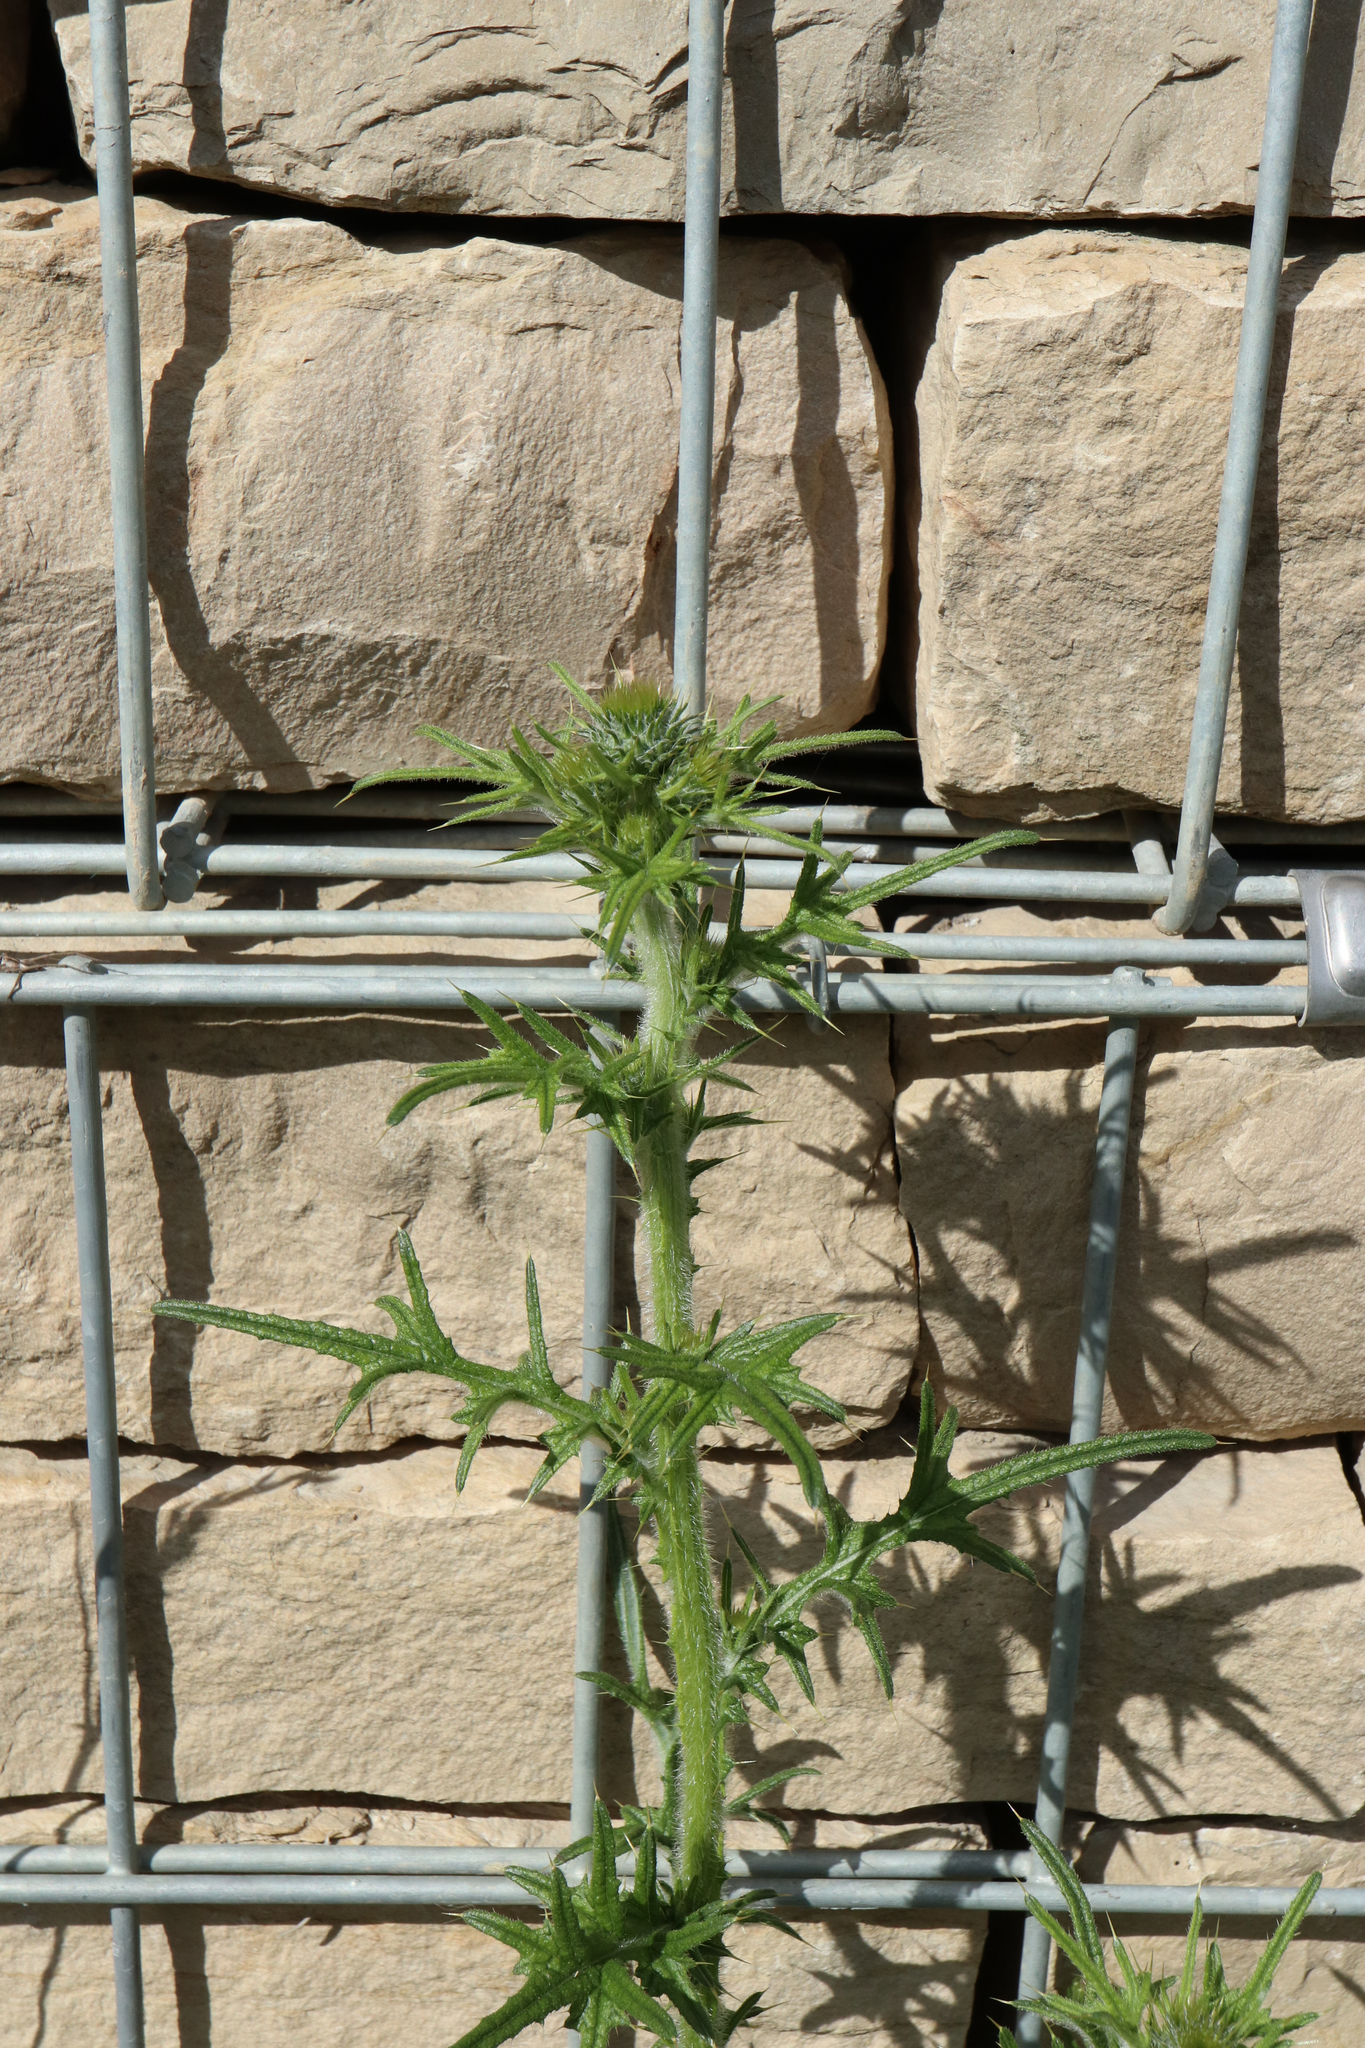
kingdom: Plantae
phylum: Tracheophyta
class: Magnoliopsida
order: Asterales
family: Asteraceae
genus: Cirsium
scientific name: Cirsium vulgare
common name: Bull thistle
